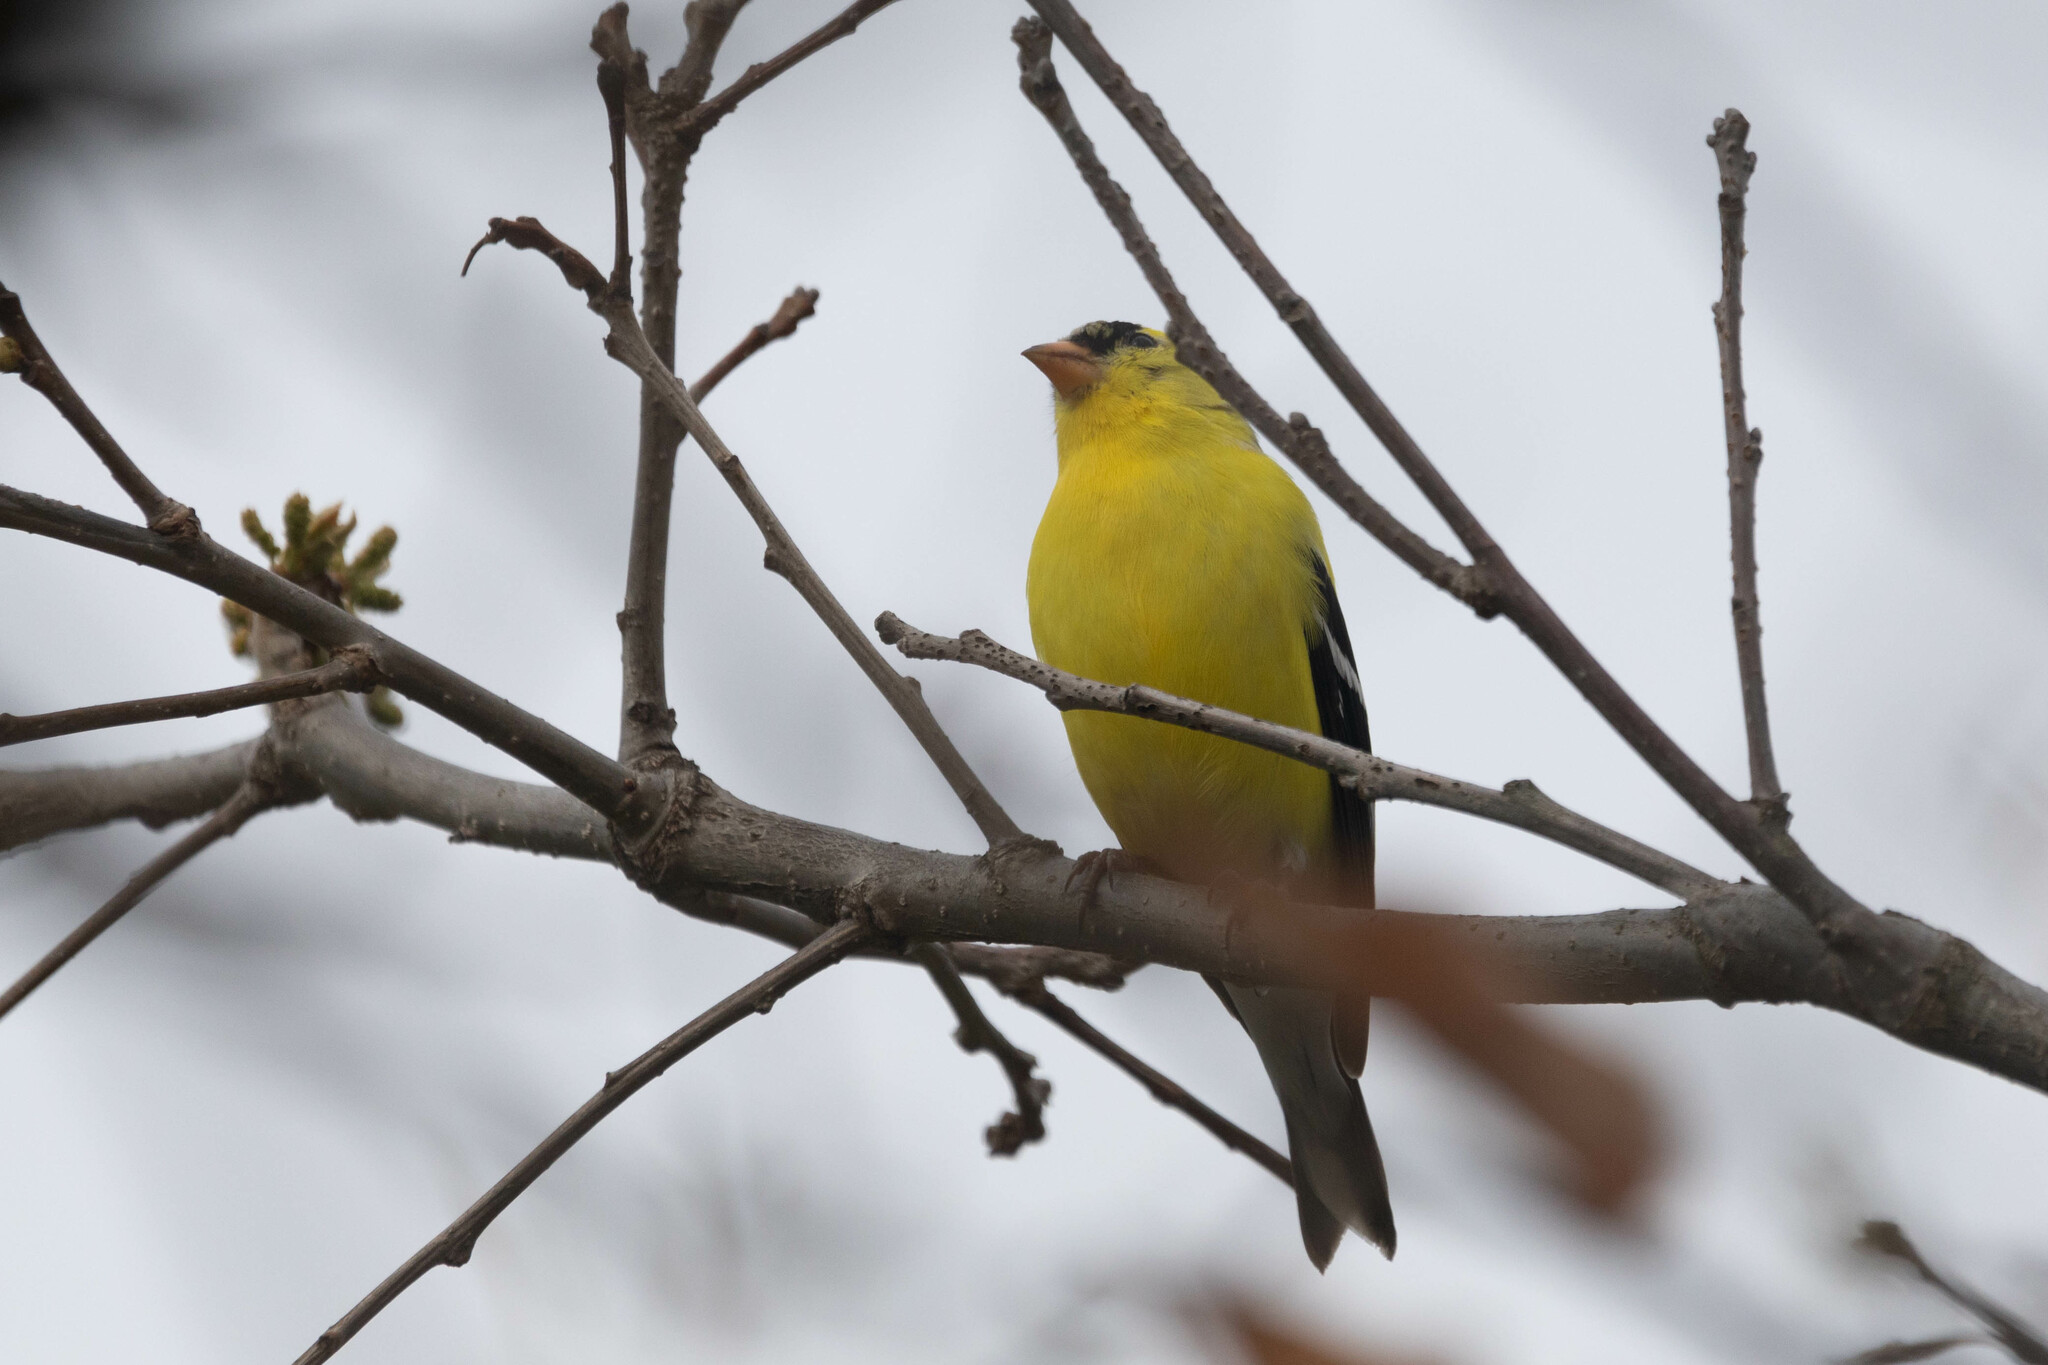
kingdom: Animalia
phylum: Chordata
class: Aves
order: Passeriformes
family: Fringillidae
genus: Spinus
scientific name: Spinus tristis
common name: American goldfinch
